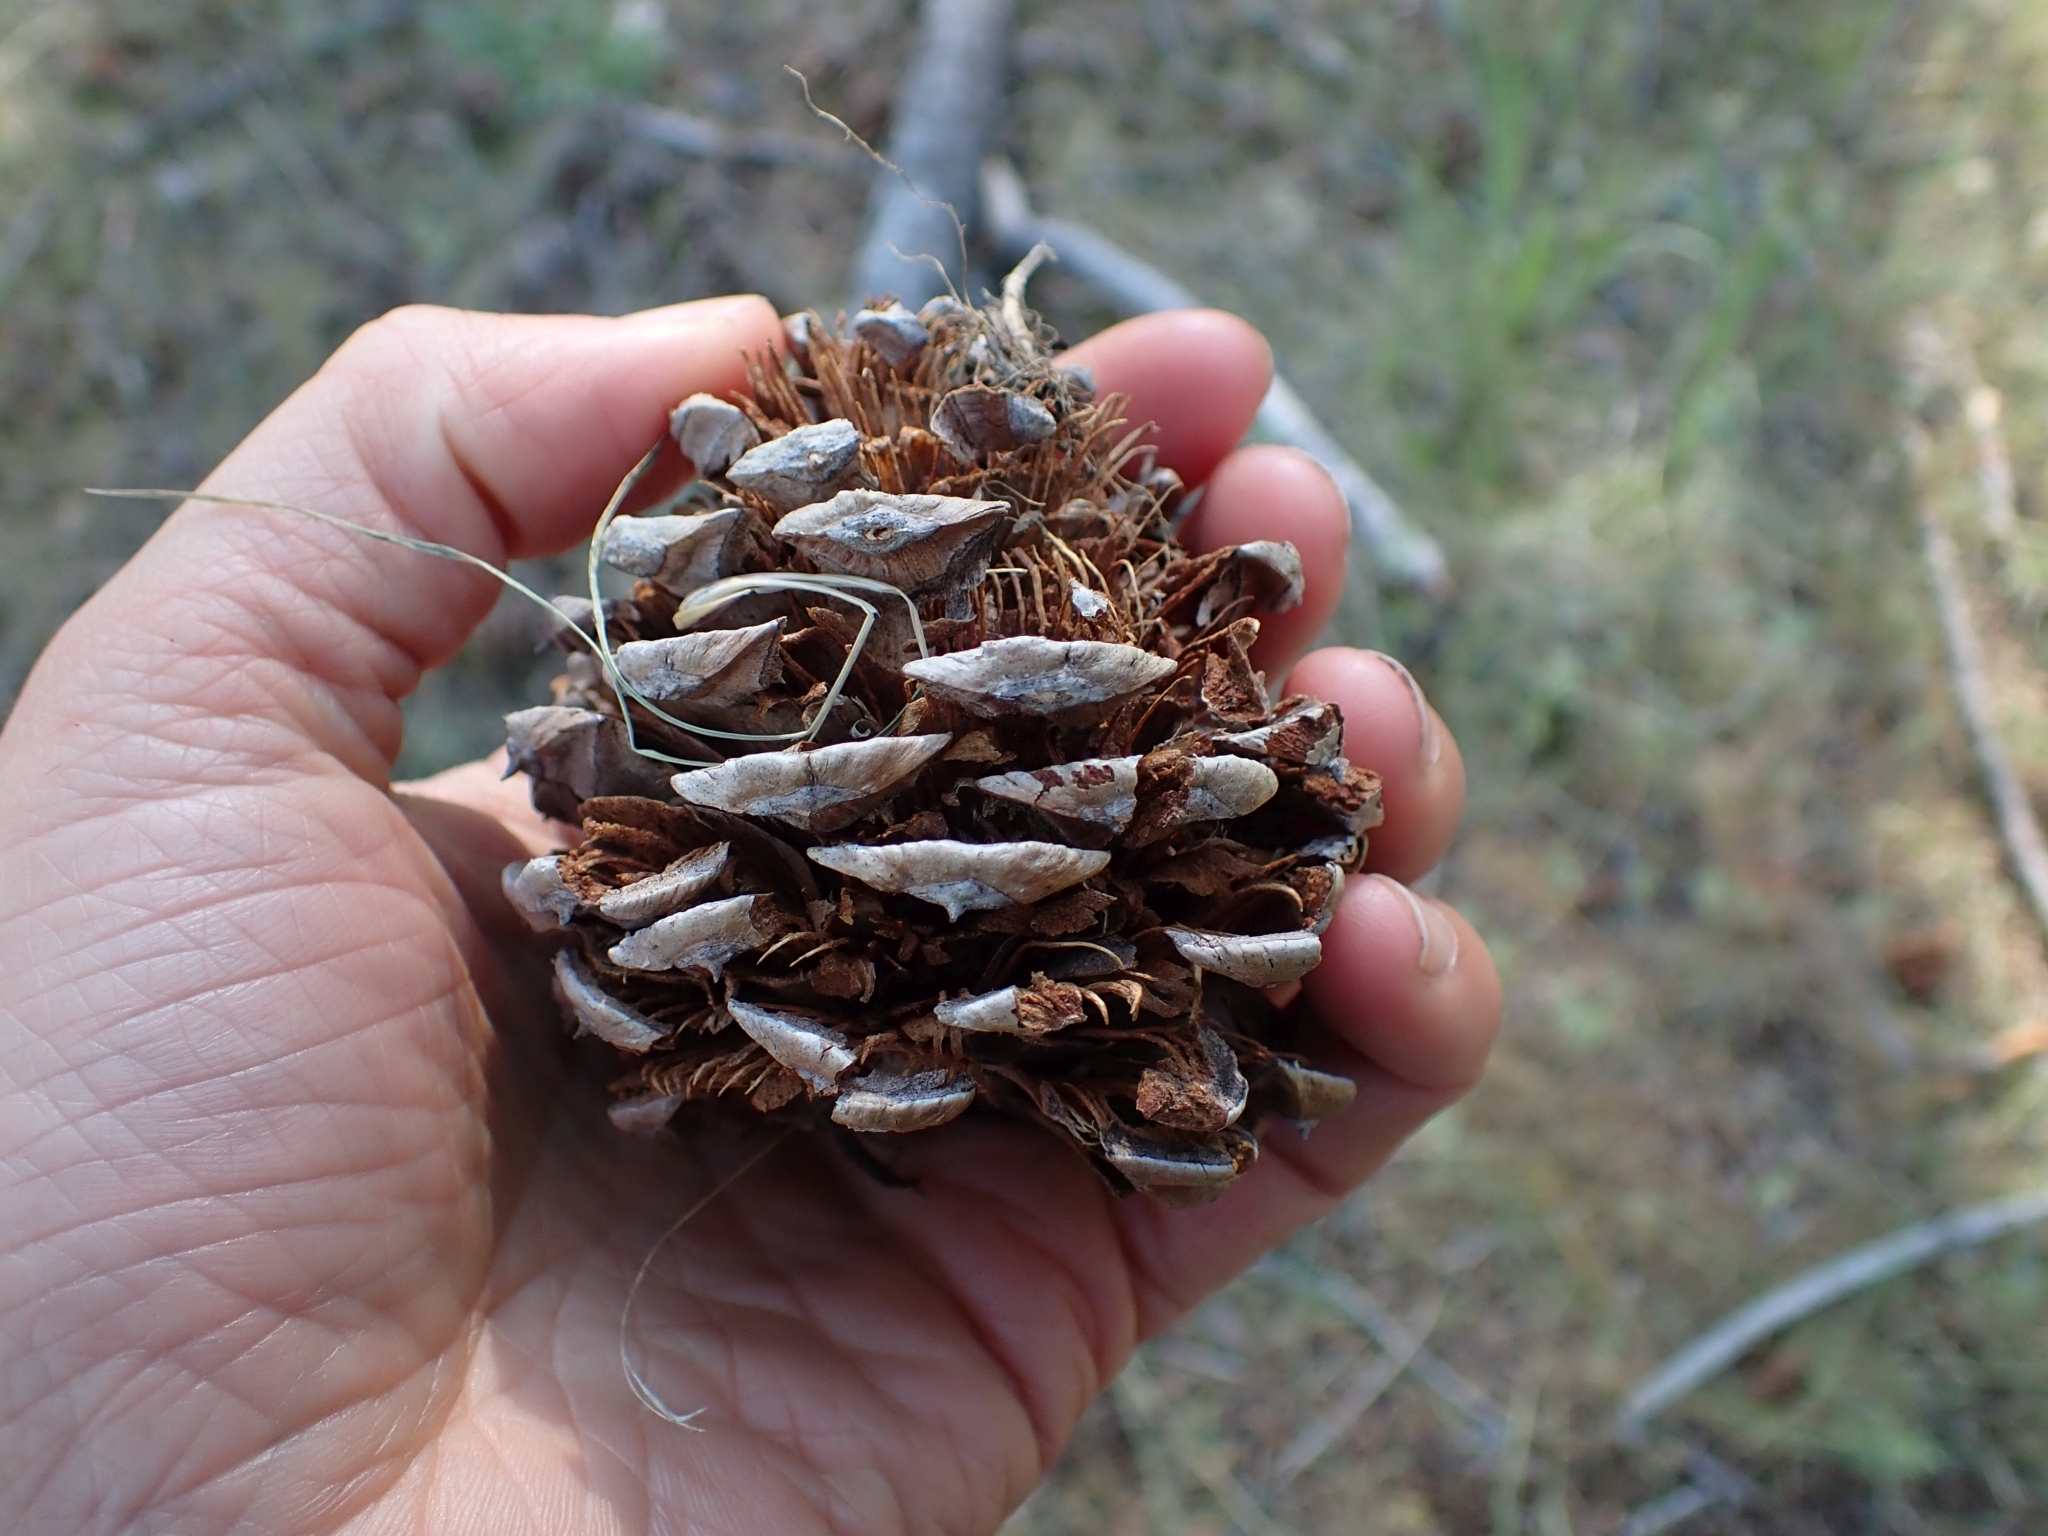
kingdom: Plantae
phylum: Tracheophyta
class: Pinopsida
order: Pinales
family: Pinaceae
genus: Pinus
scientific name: Pinus ponderosa
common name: Western yellow-pine
